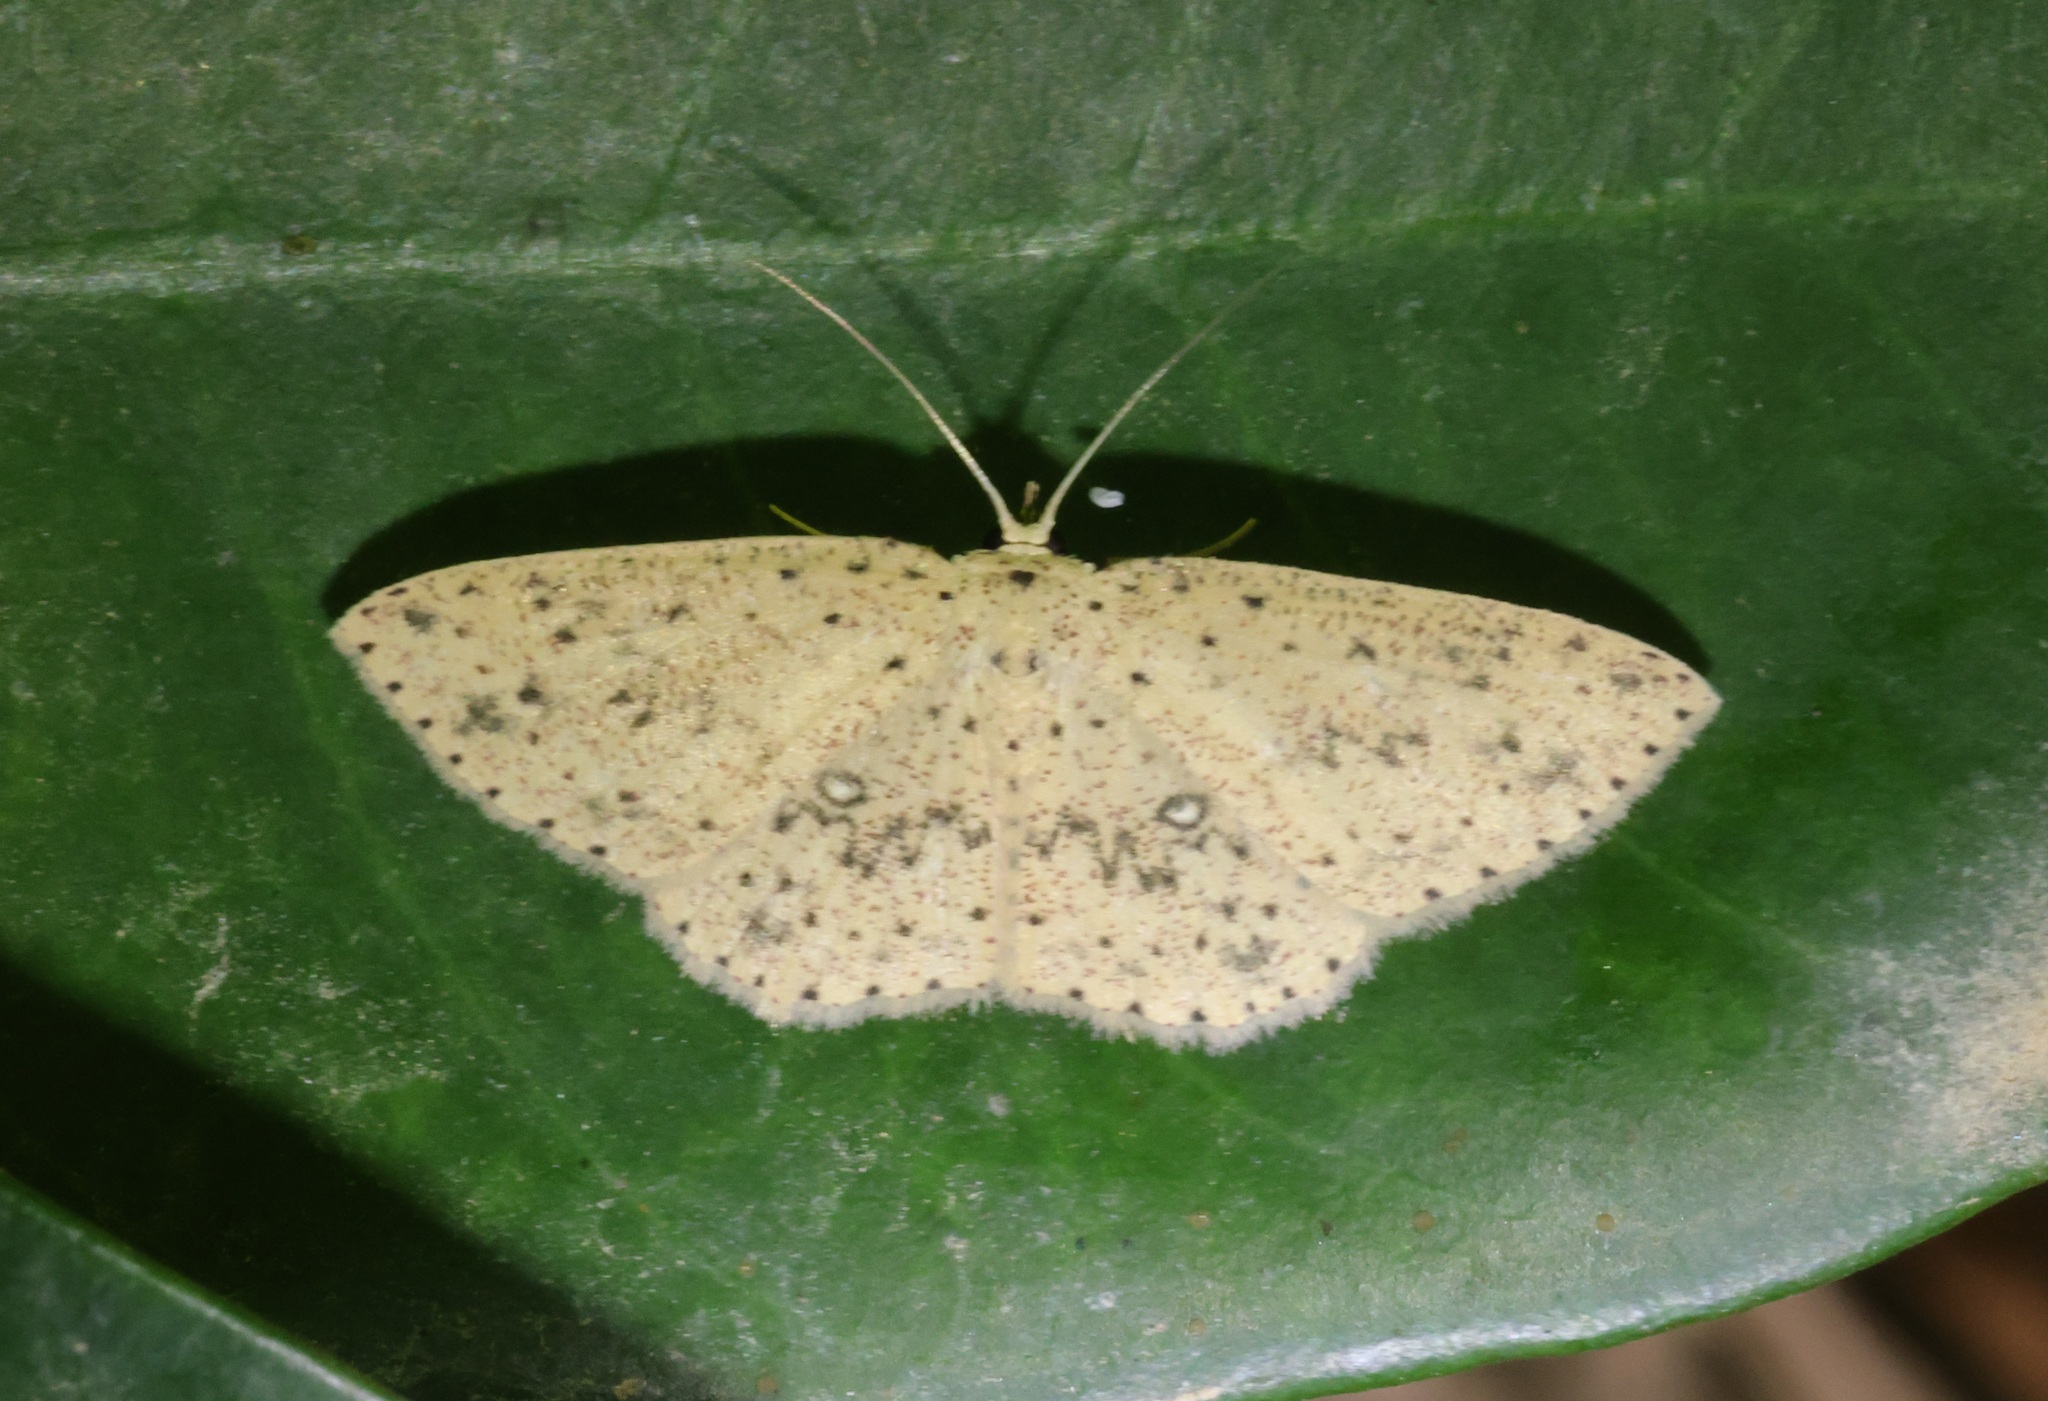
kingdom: Animalia
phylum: Arthropoda
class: Insecta
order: Lepidoptera
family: Geometridae
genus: Perixera
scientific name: Perixera decretarioides
